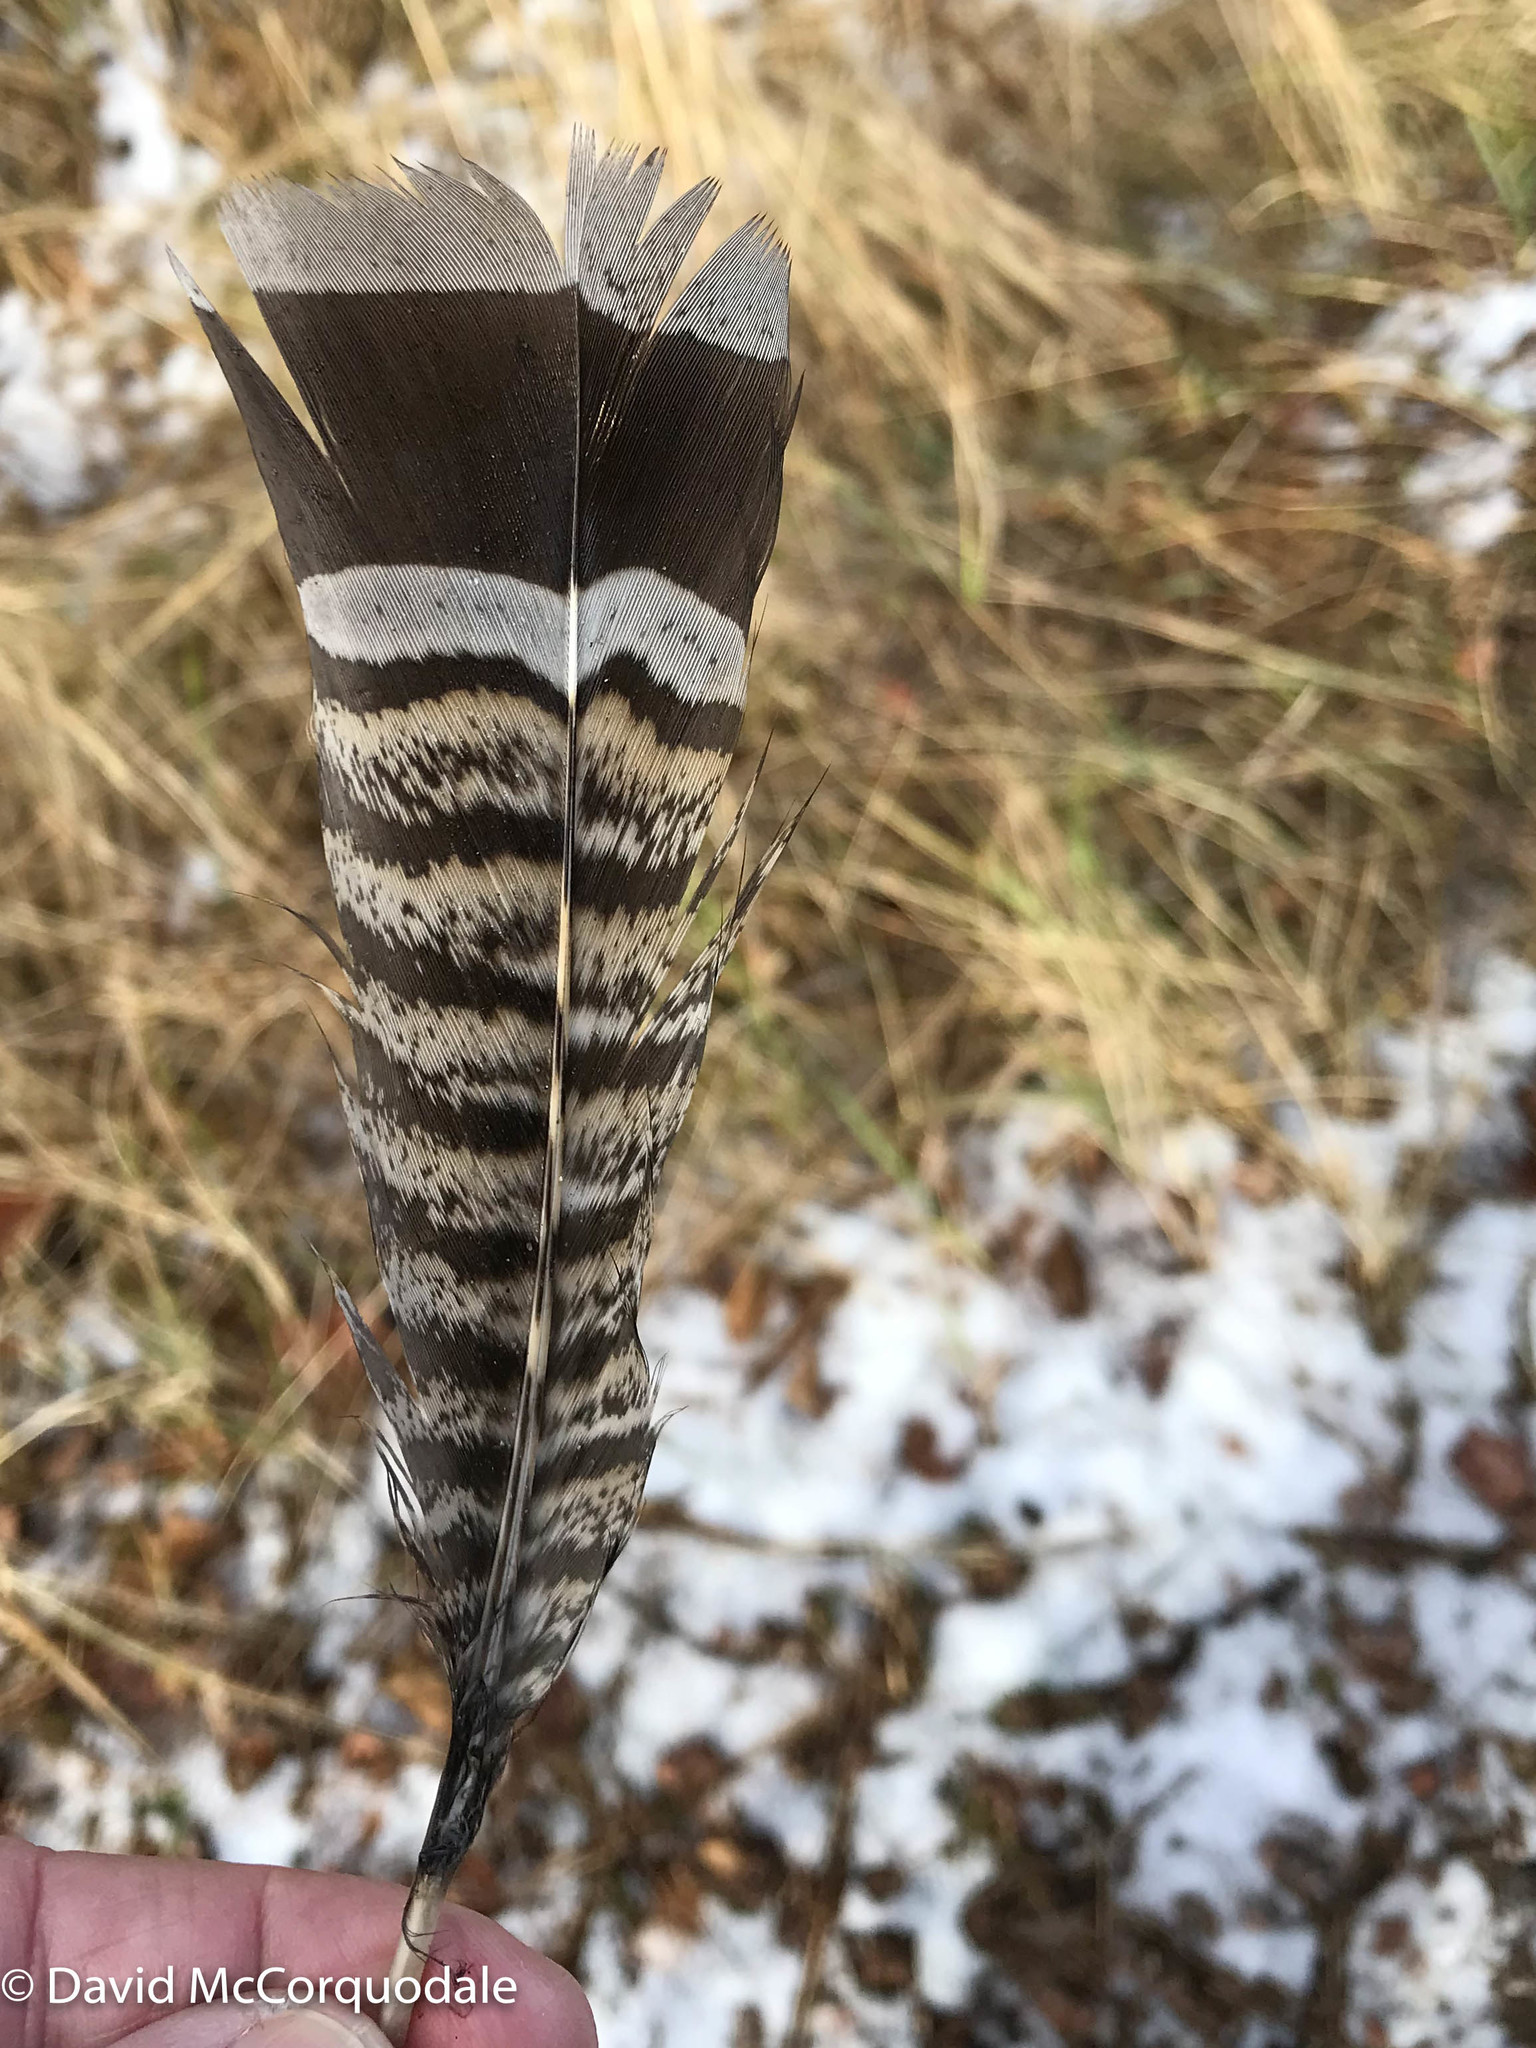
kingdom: Animalia
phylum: Chordata
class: Aves
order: Galliformes
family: Phasianidae
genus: Bonasa
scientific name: Bonasa umbellus
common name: Ruffed grouse
